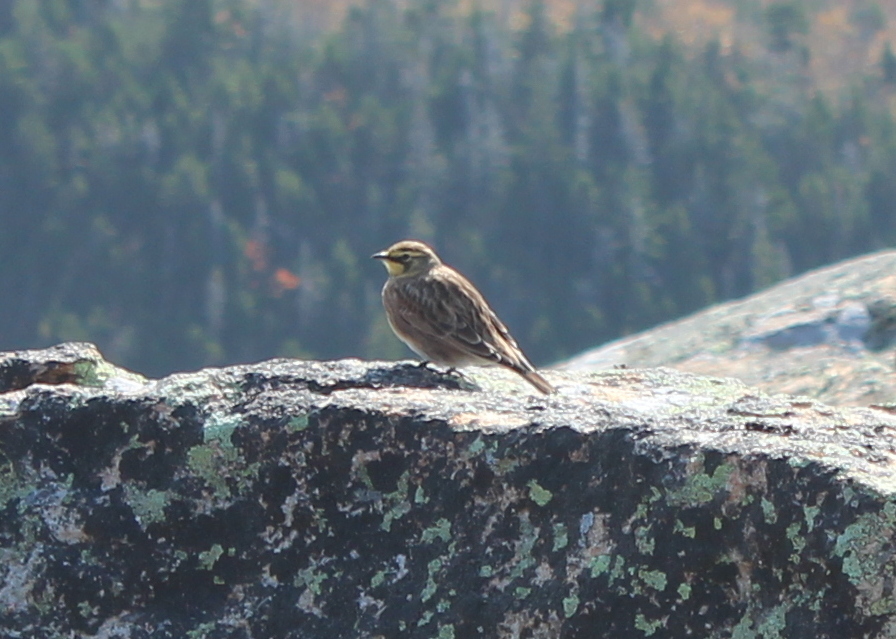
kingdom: Animalia
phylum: Chordata
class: Aves
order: Passeriformes
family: Alaudidae
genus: Eremophila
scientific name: Eremophila alpestris
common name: Horned lark
